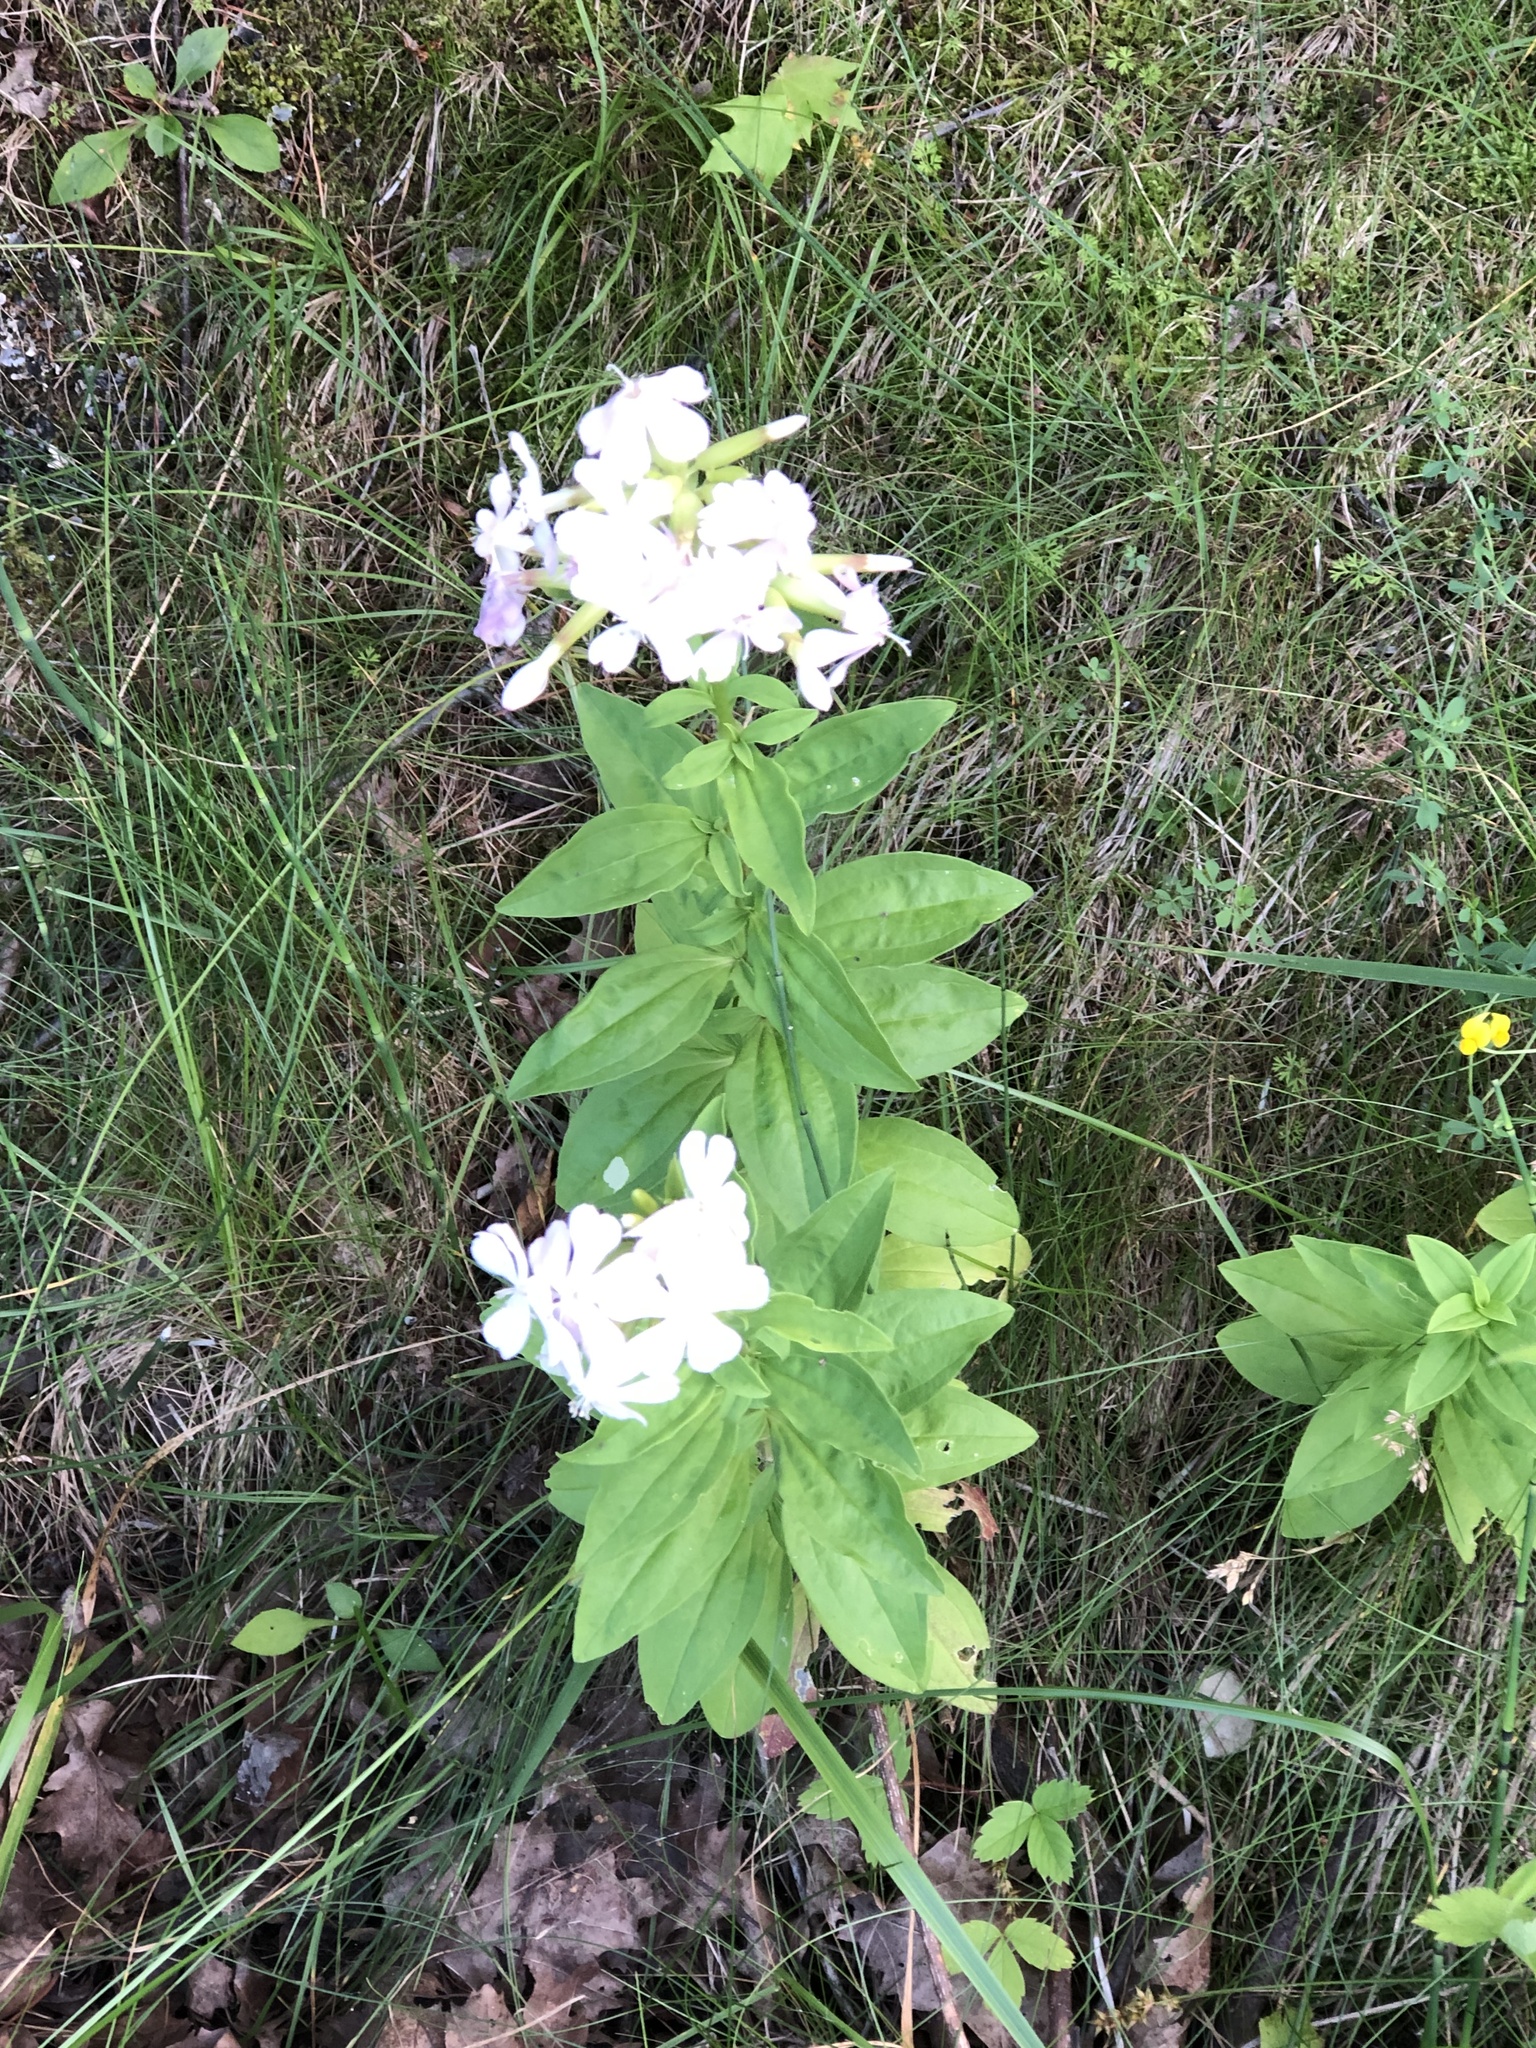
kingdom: Plantae
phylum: Tracheophyta
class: Magnoliopsida
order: Caryophyllales
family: Caryophyllaceae
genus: Saponaria
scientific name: Saponaria officinalis
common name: Soapwort
